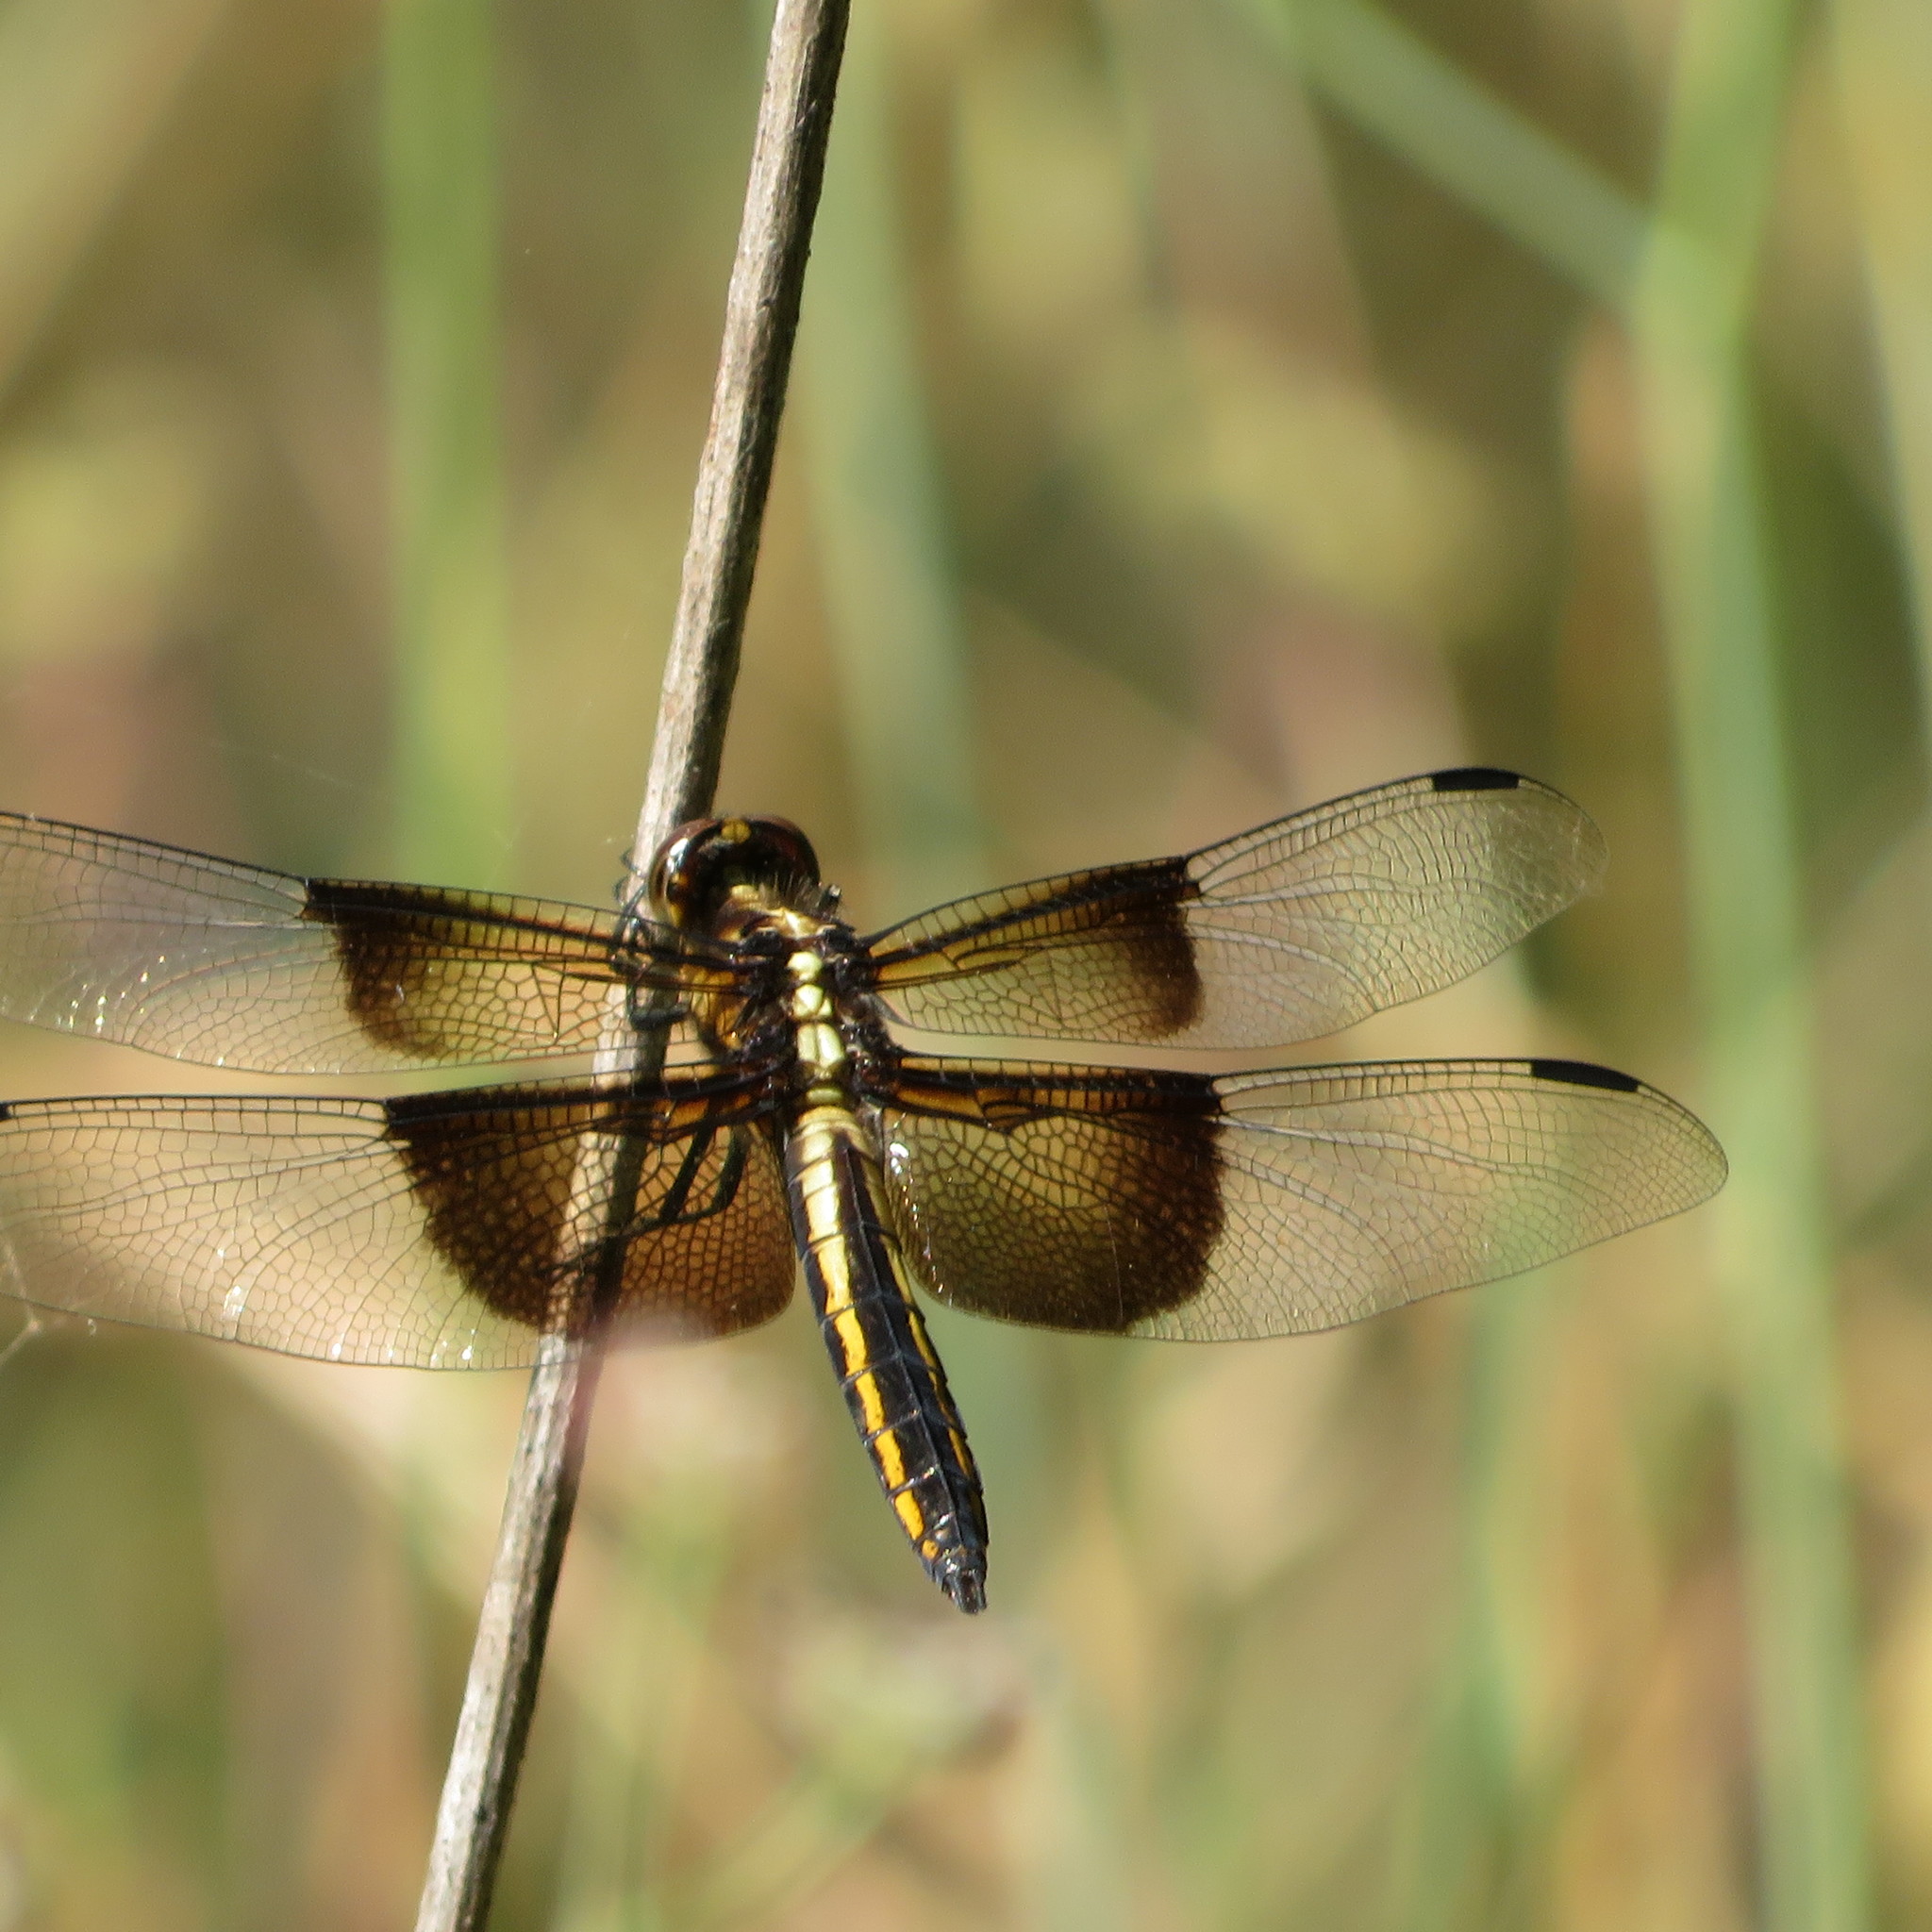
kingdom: Animalia
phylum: Arthropoda
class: Insecta
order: Odonata
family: Libellulidae
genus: Libellula
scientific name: Libellula luctuosa
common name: Widow skimmer
